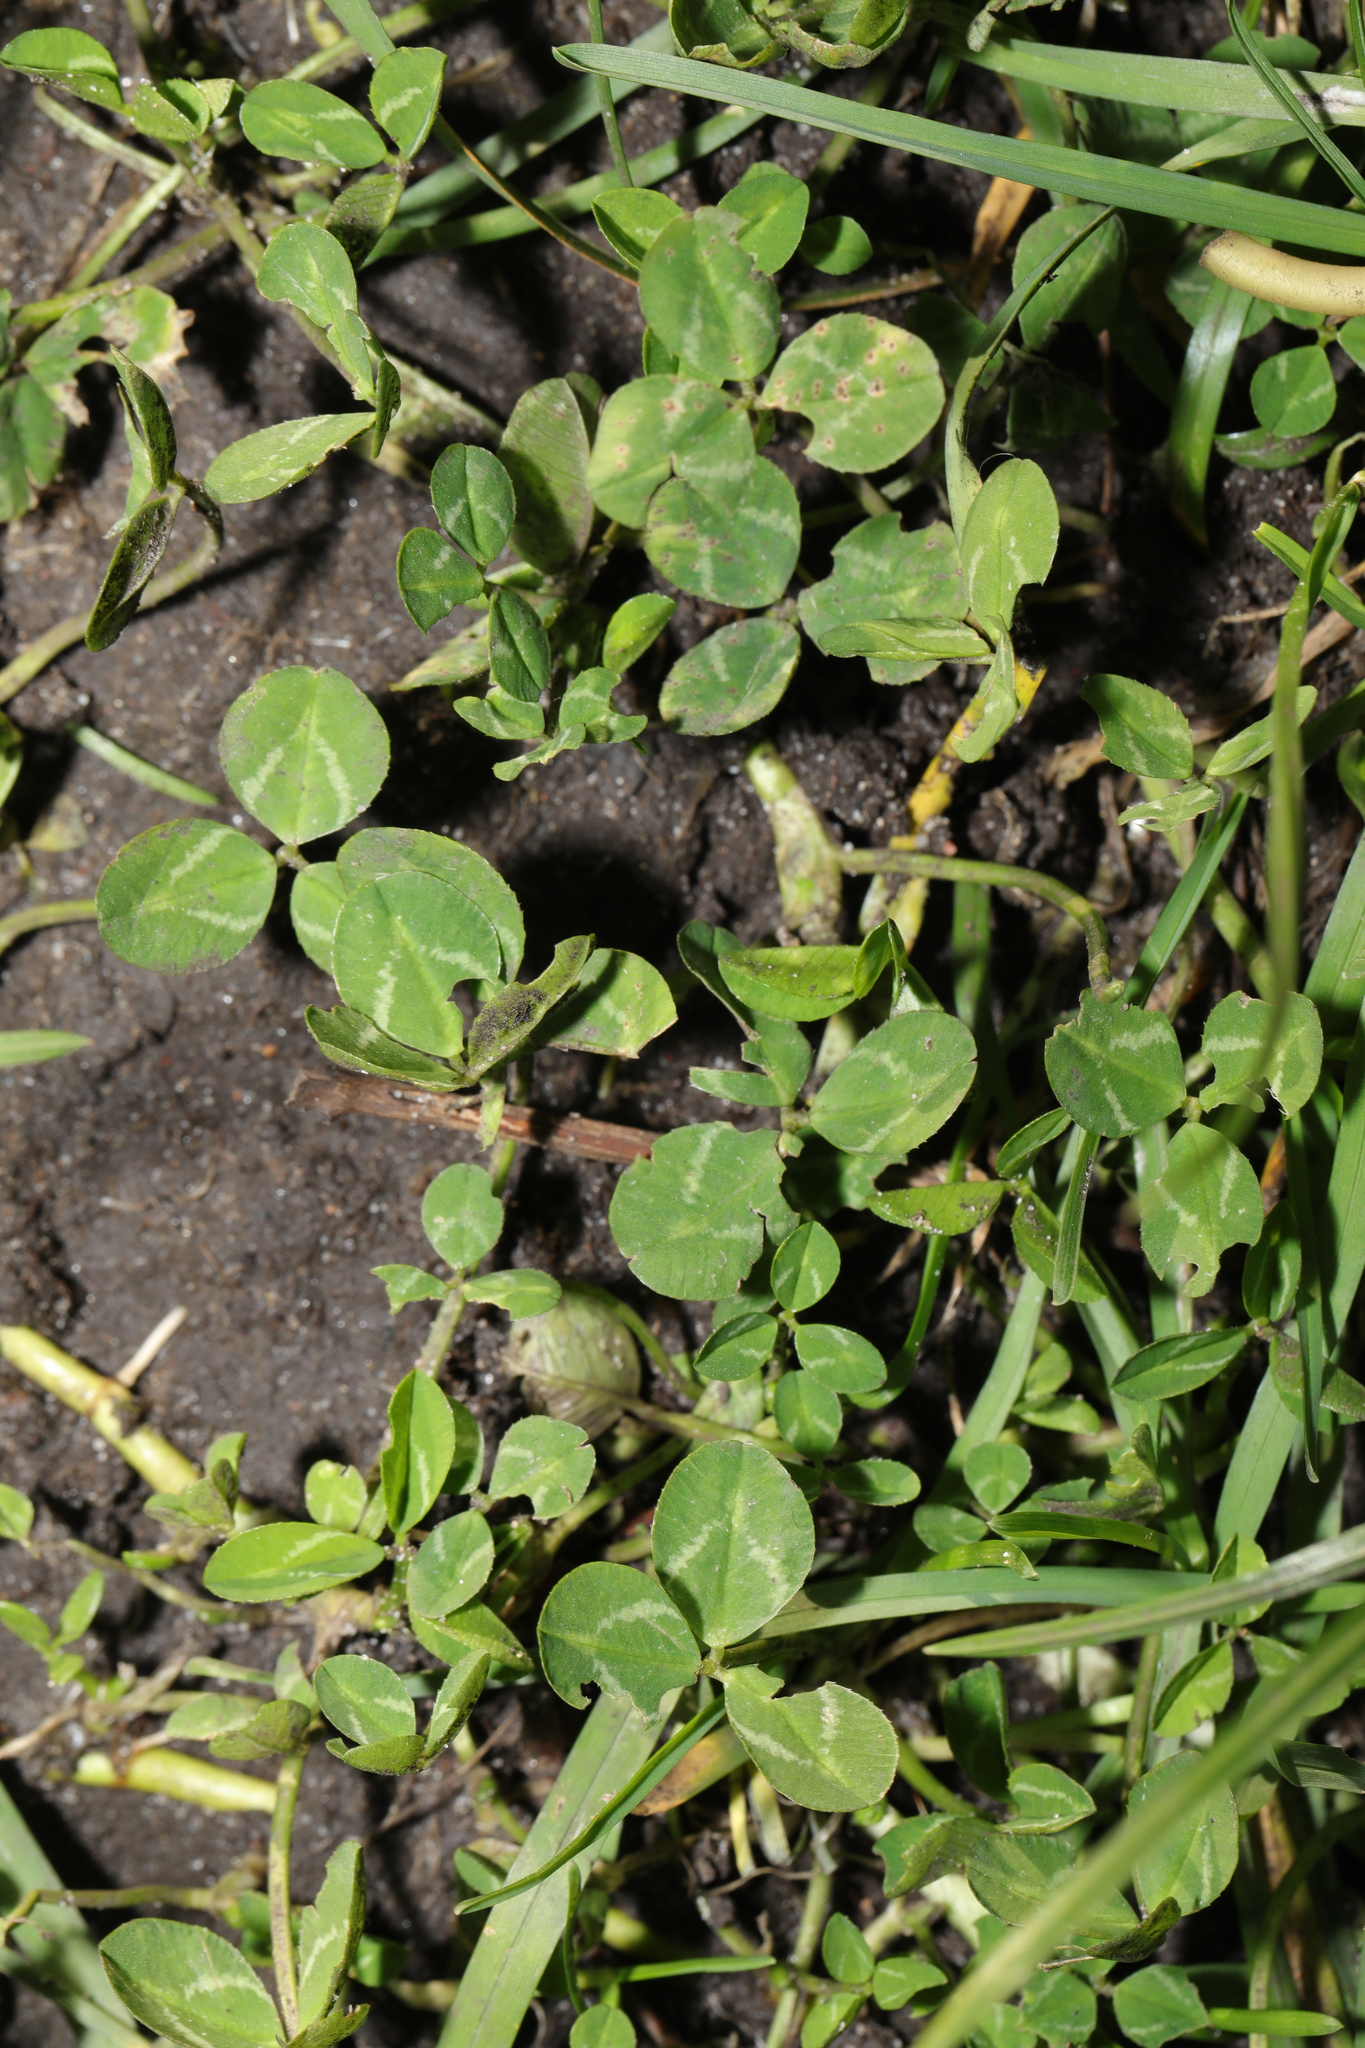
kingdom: Plantae
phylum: Tracheophyta
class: Magnoliopsida
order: Fabales
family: Fabaceae
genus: Trifolium
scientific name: Trifolium repens
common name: White clover
